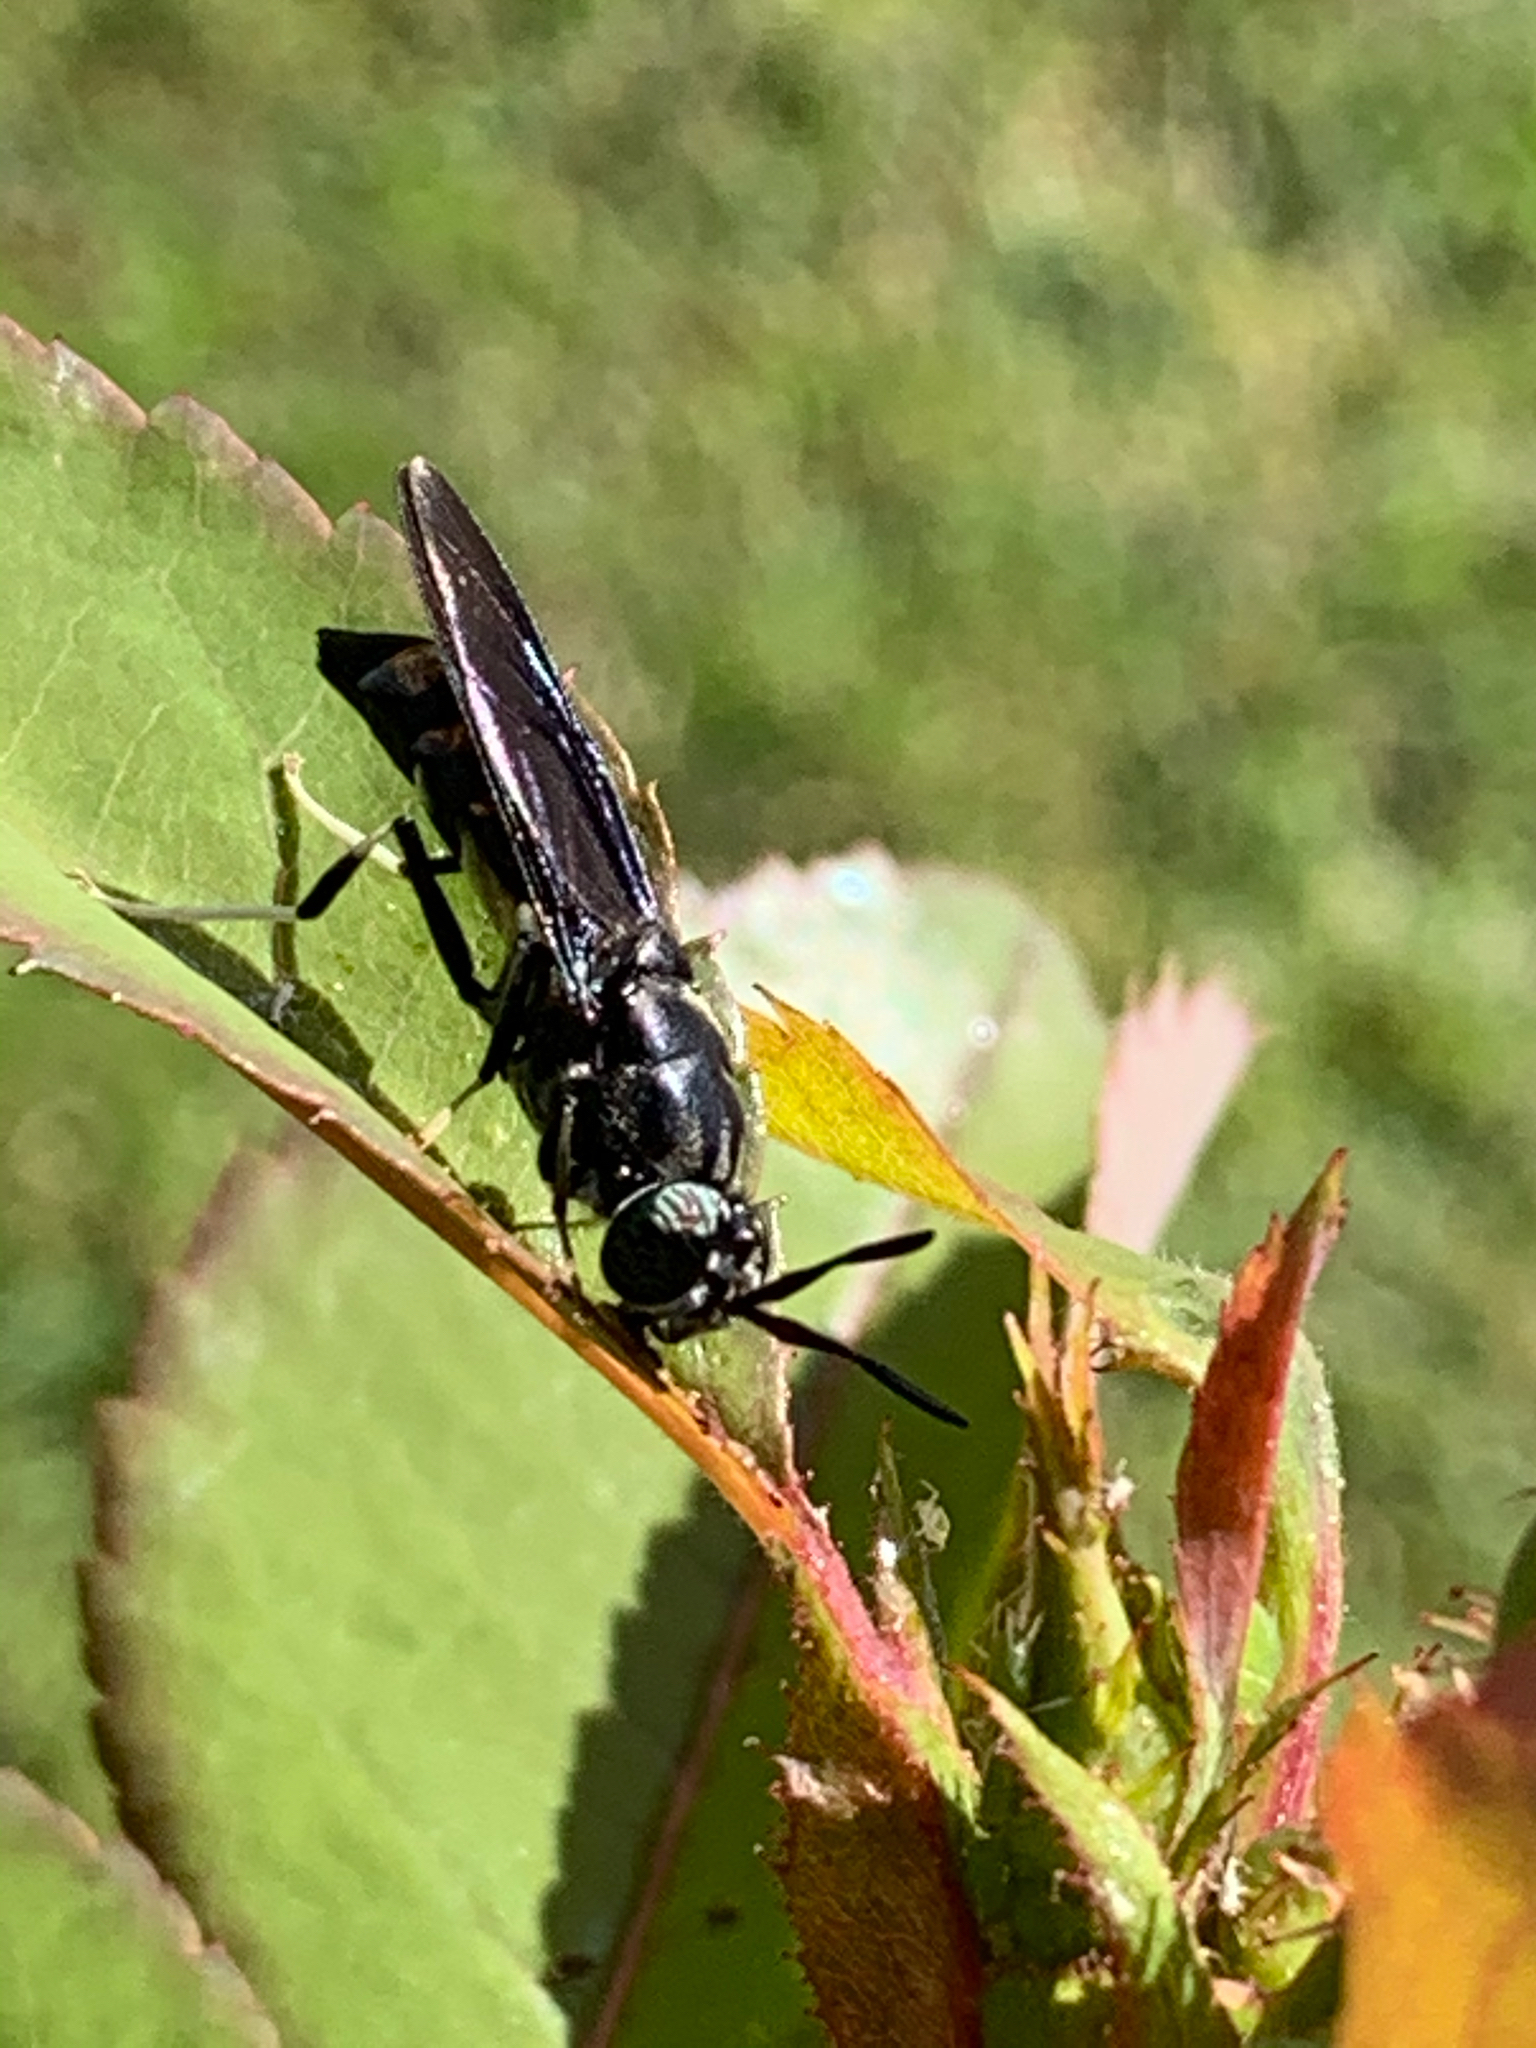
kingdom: Animalia
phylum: Arthropoda
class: Insecta
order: Diptera
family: Stratiomyidae
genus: Hermetia
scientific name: Hermetia illucens
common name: Black soldier fly
